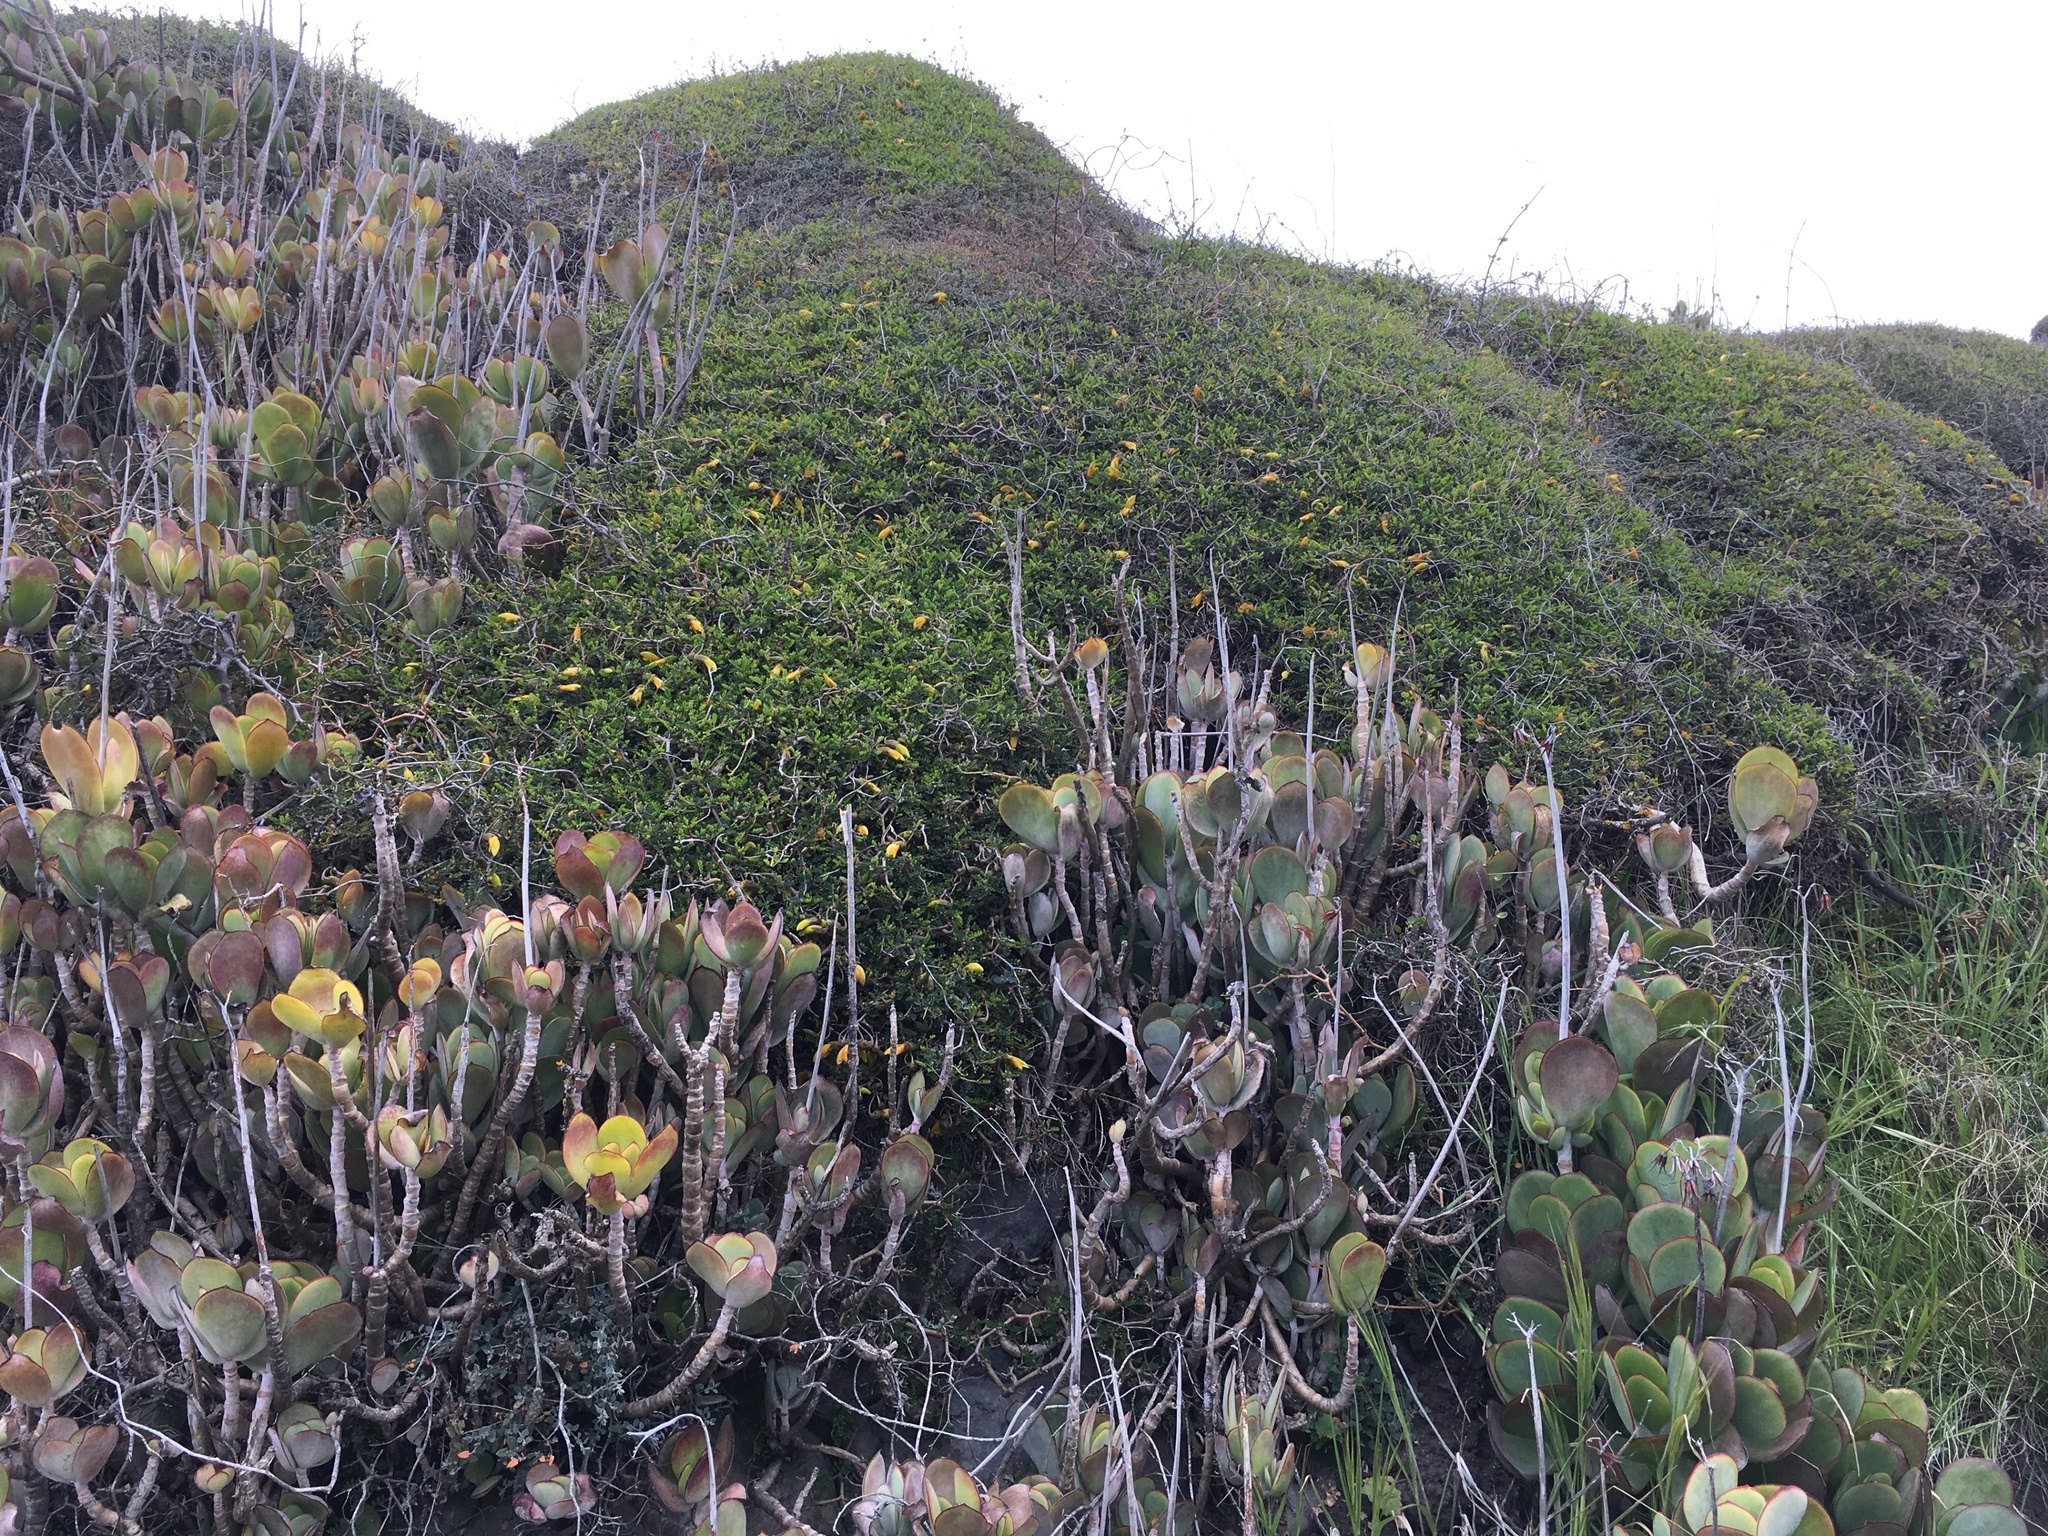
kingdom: Plantae
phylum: Tracheophyta
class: Magnoliopsida
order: Fabales
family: Fabaceae
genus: Sophora
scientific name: Sophora prostrata
